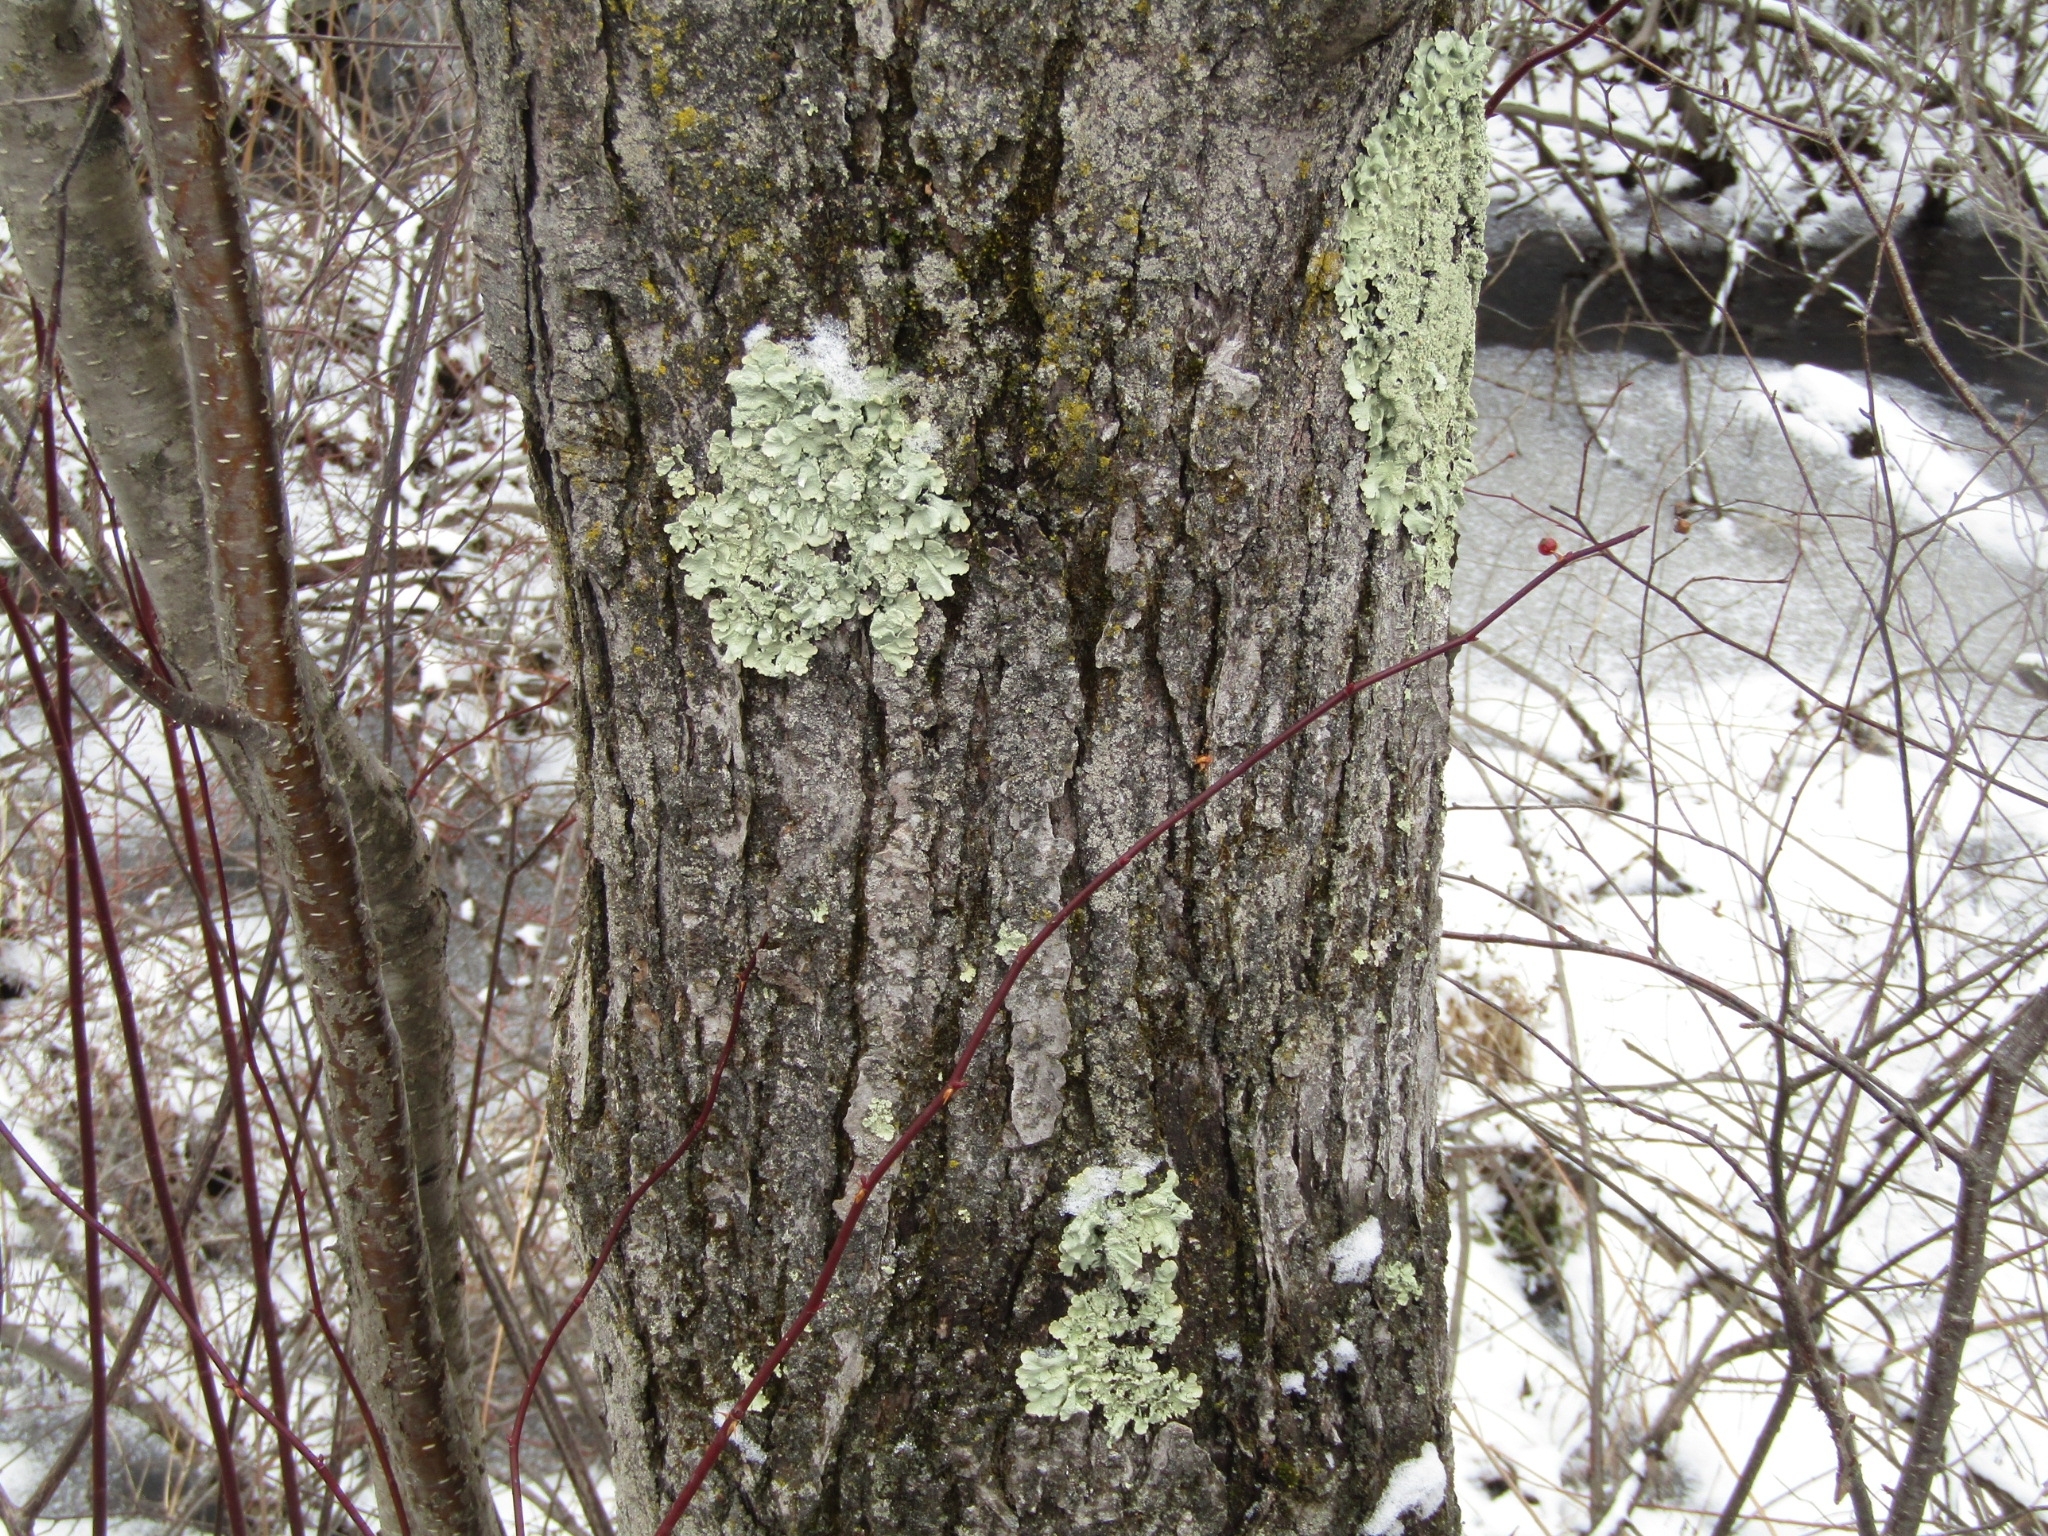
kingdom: Fungi
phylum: Ascomycota
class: Lecanoromycetes
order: Lecanorales
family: Parmeliaceae
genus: Flavoparmelia
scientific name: Flavoparmelia caperata
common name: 40-mile per hour lichen
